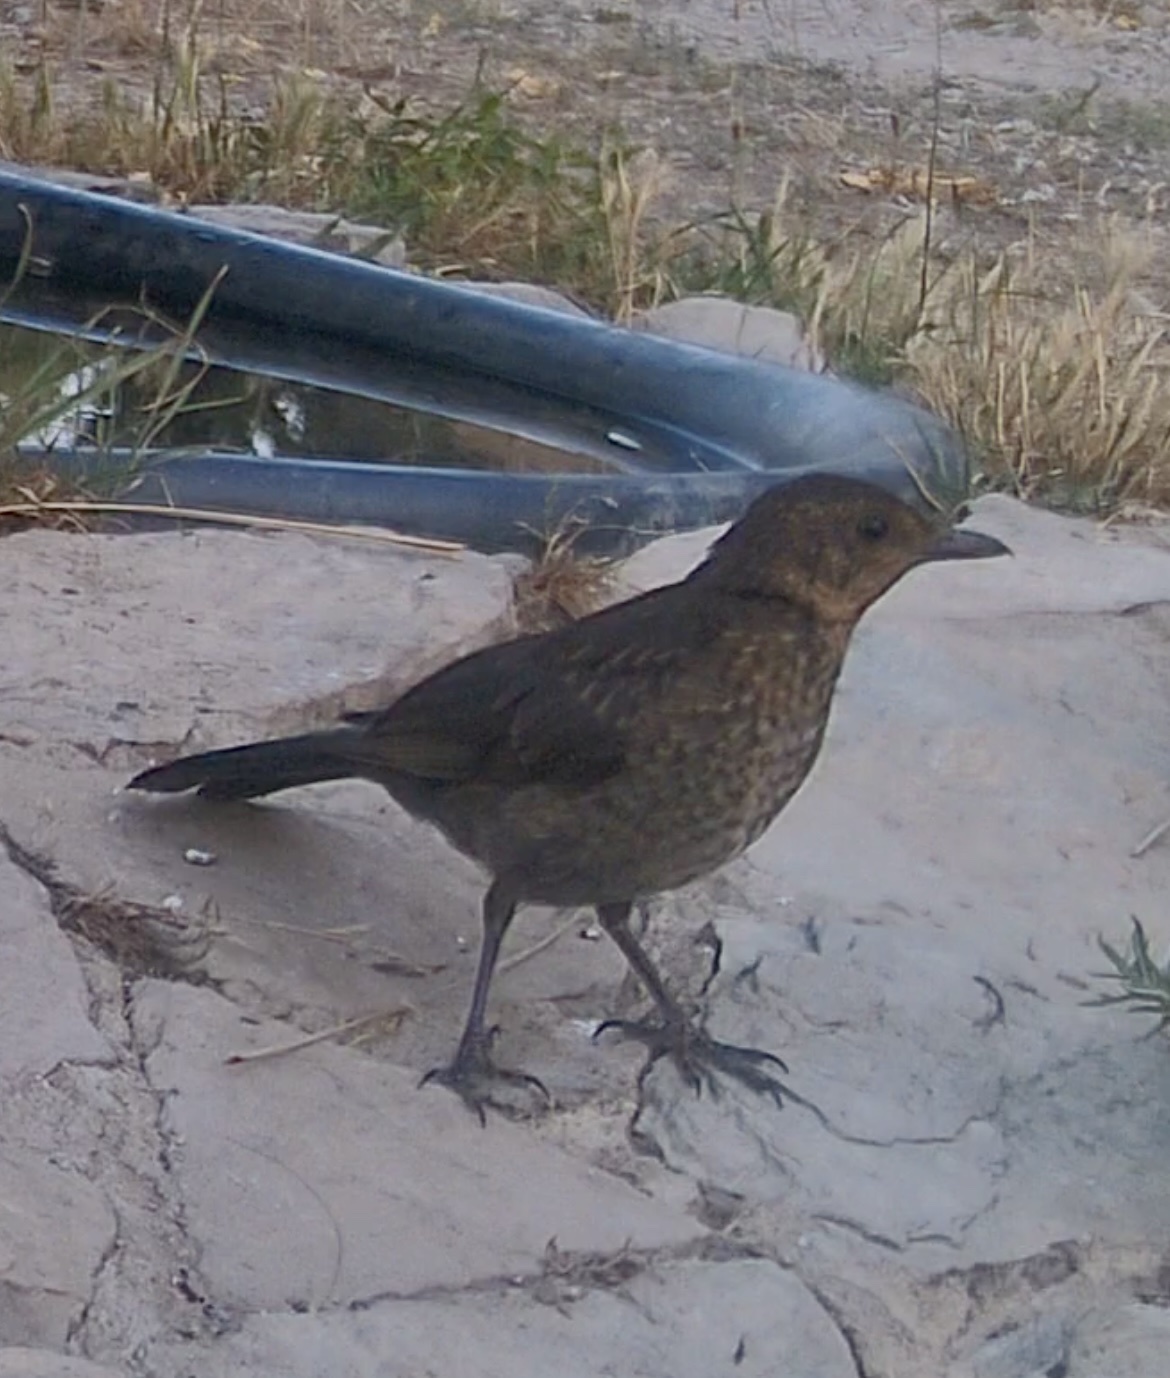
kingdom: Animalia
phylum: Chordata
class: Aves
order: Passeriformes
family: Turdidae
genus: Turdus
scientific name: Turdus merula
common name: Common blackbird
